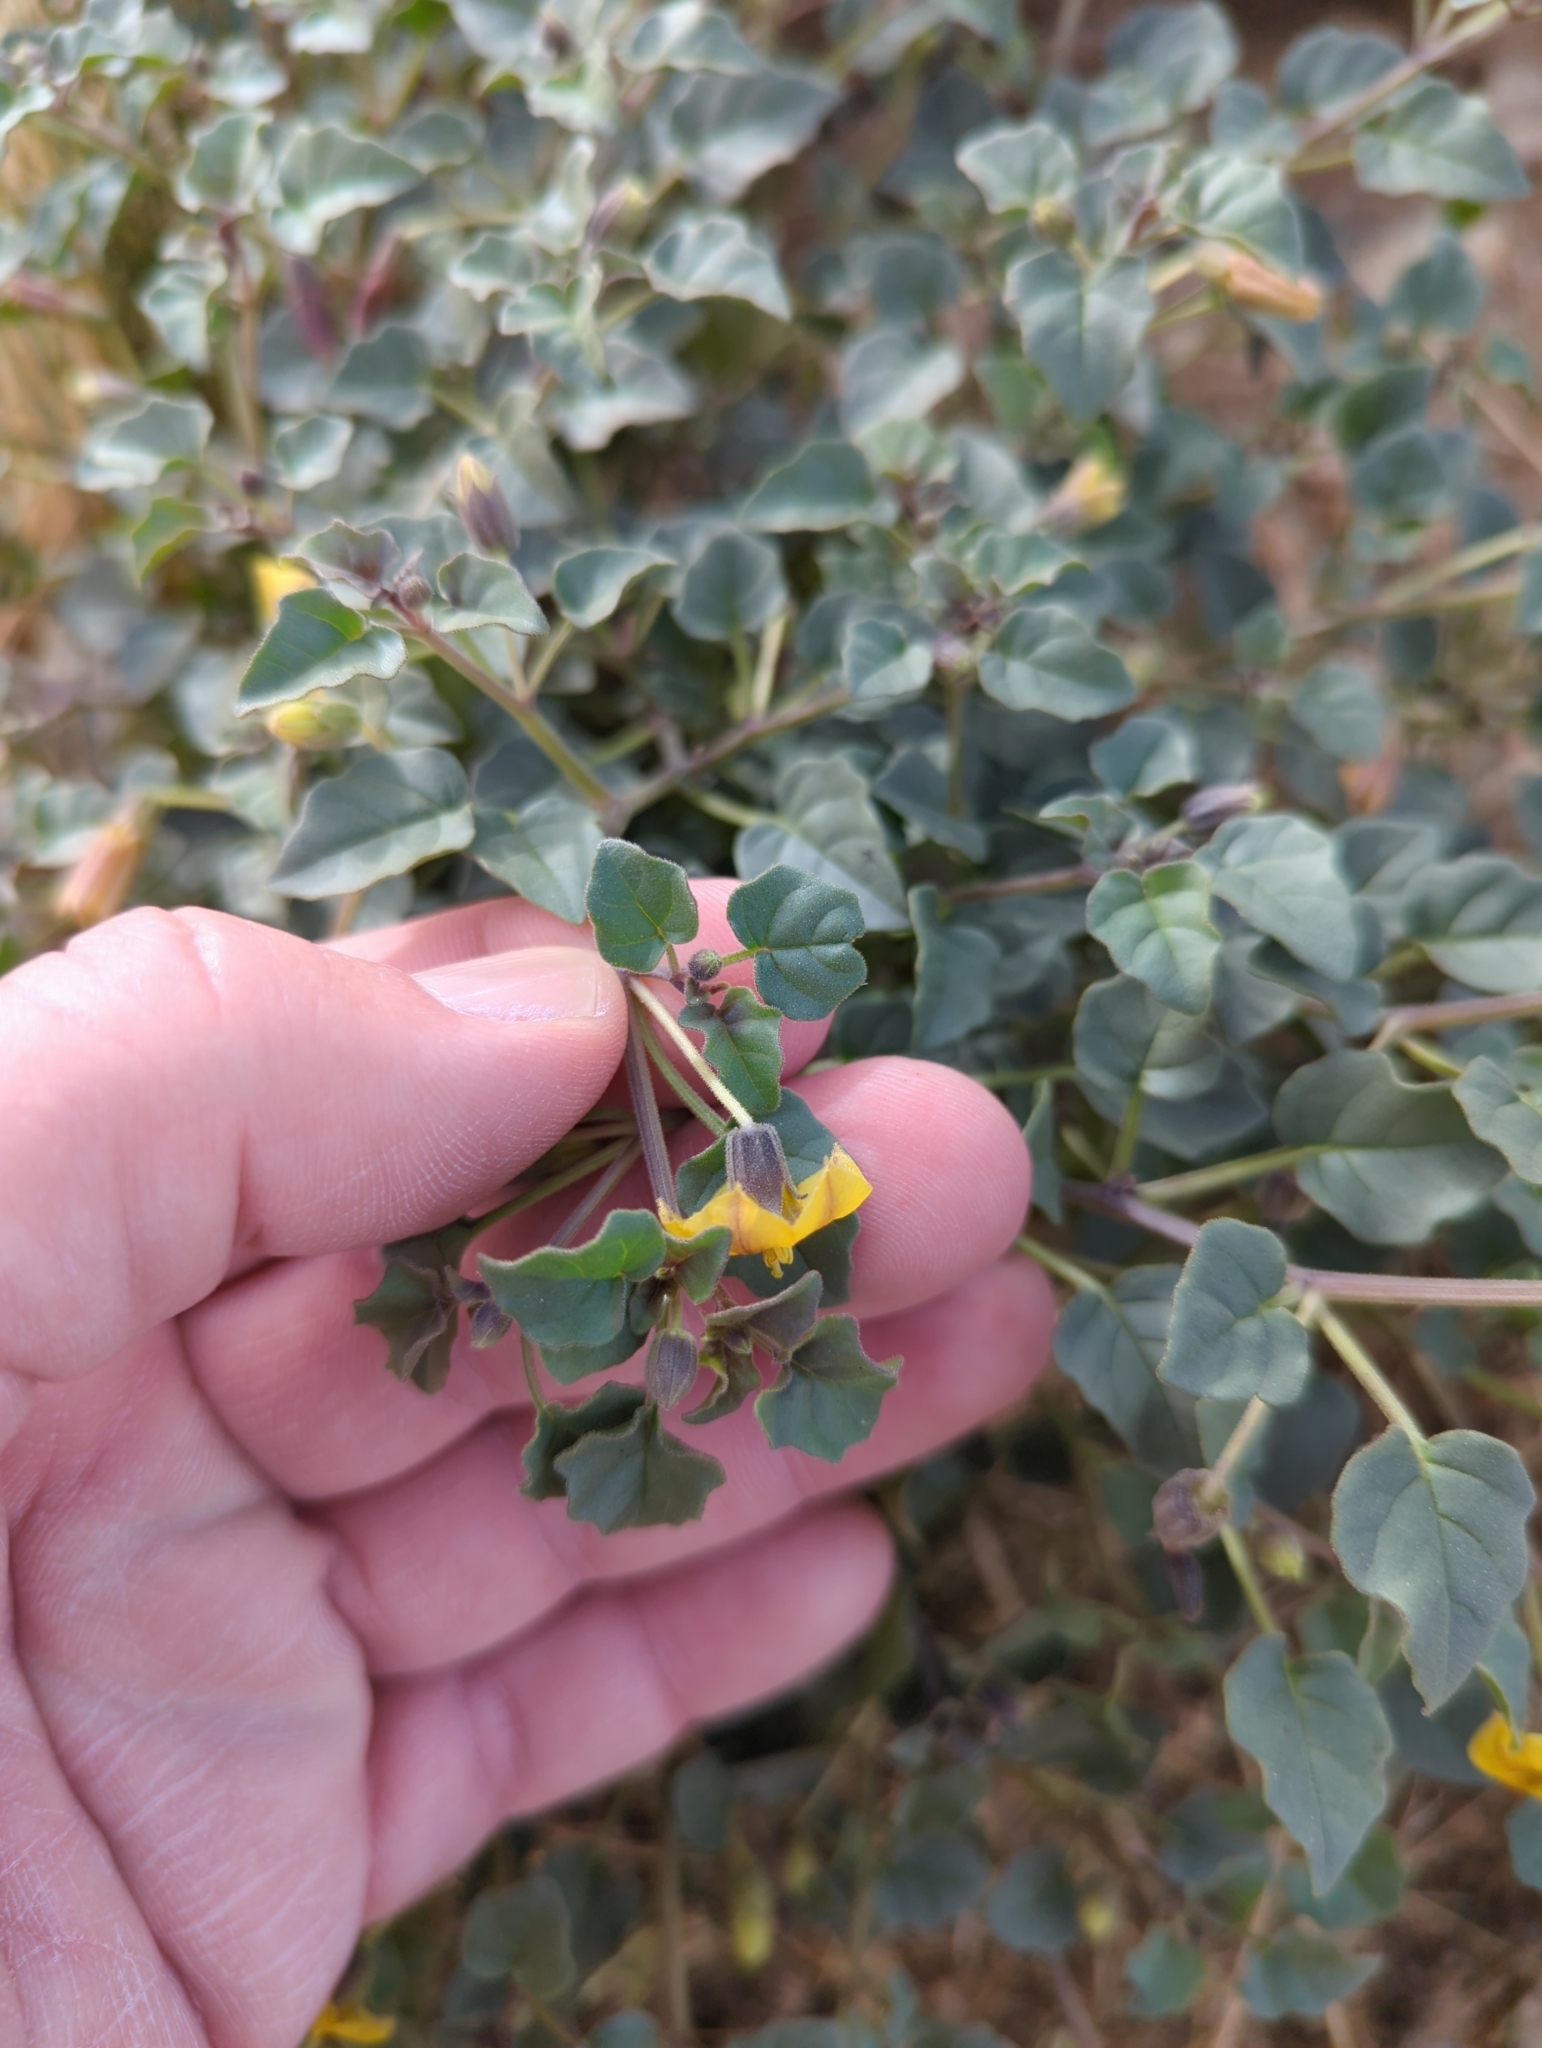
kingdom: Plantae
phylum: Tracheophyta
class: Magnoliopsida
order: Solanales
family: Solanaceae
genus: Physalis
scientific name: Physalis crassifolia
